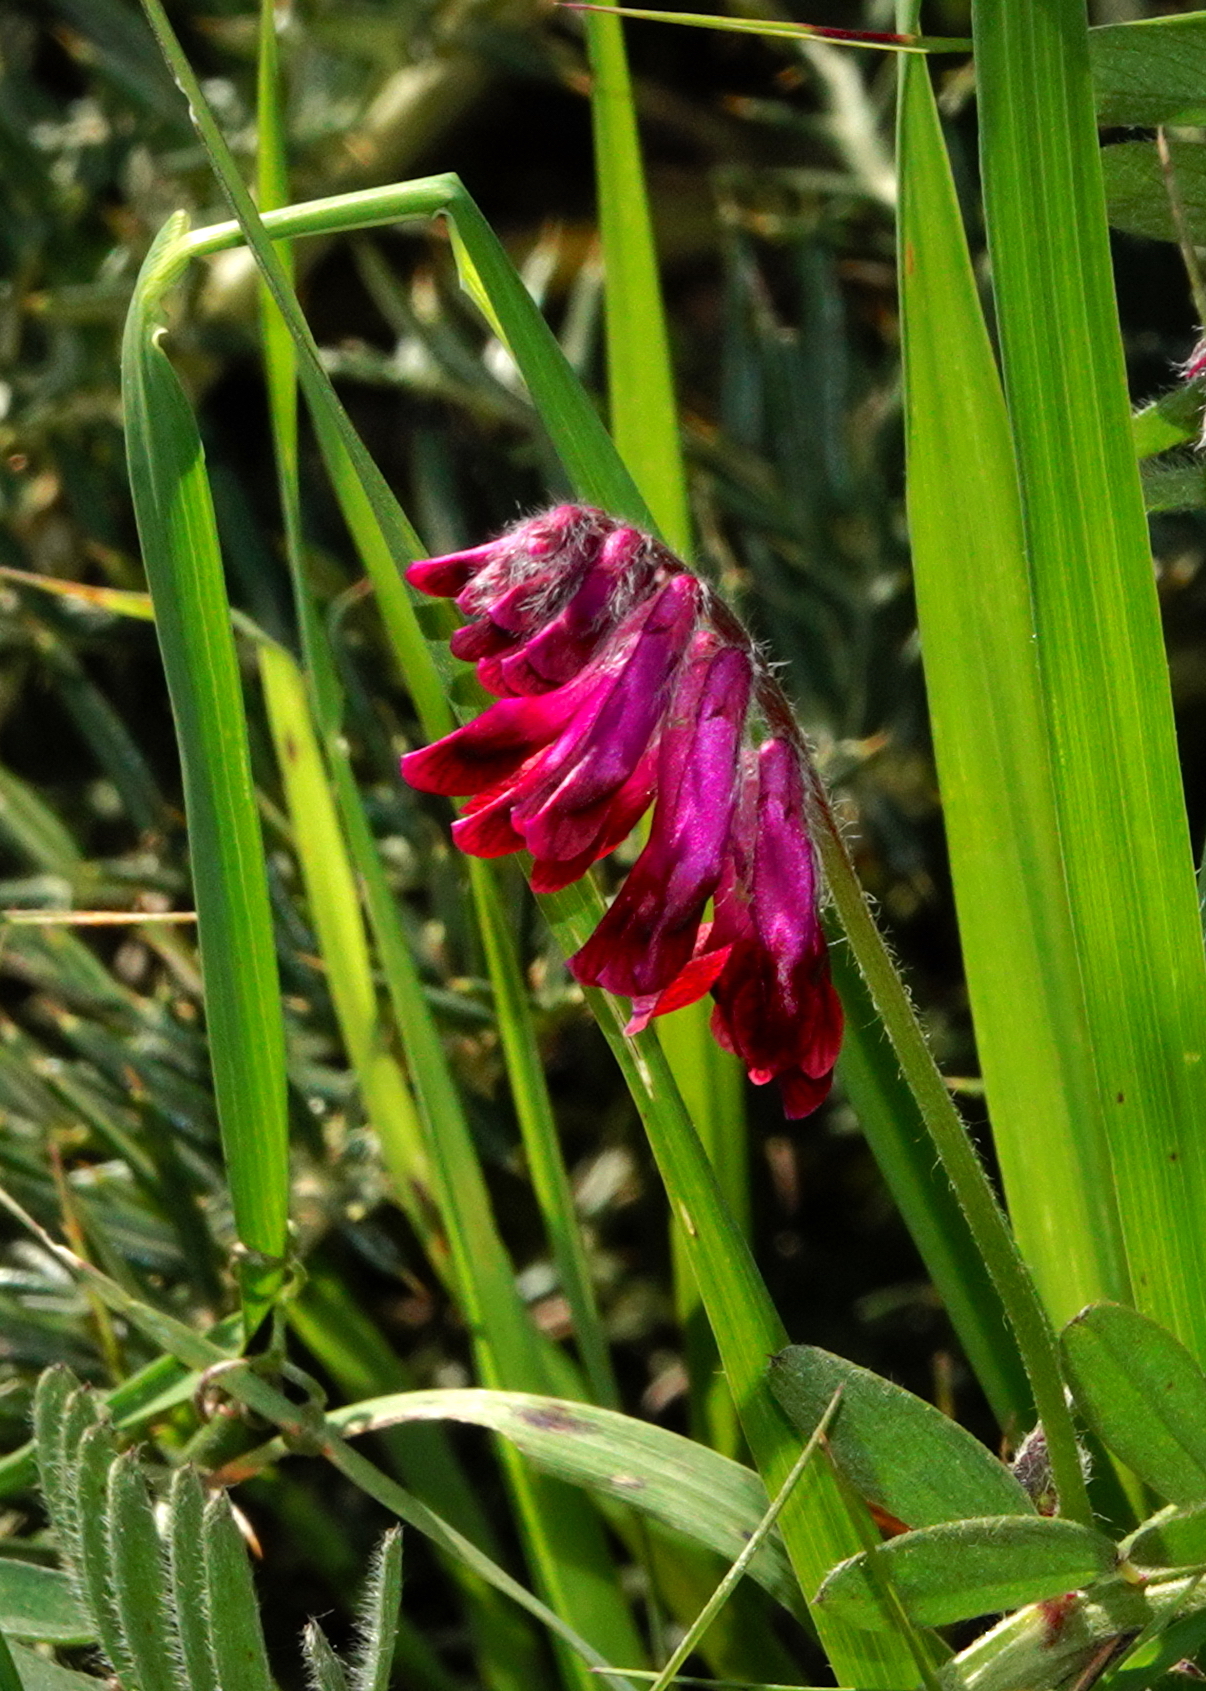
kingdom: Plantae
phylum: Tracheophyta
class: Magnoliopsida
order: Fabales
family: Fabaceae
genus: Vicia
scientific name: Vicia benghalensis
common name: Purple vetch
